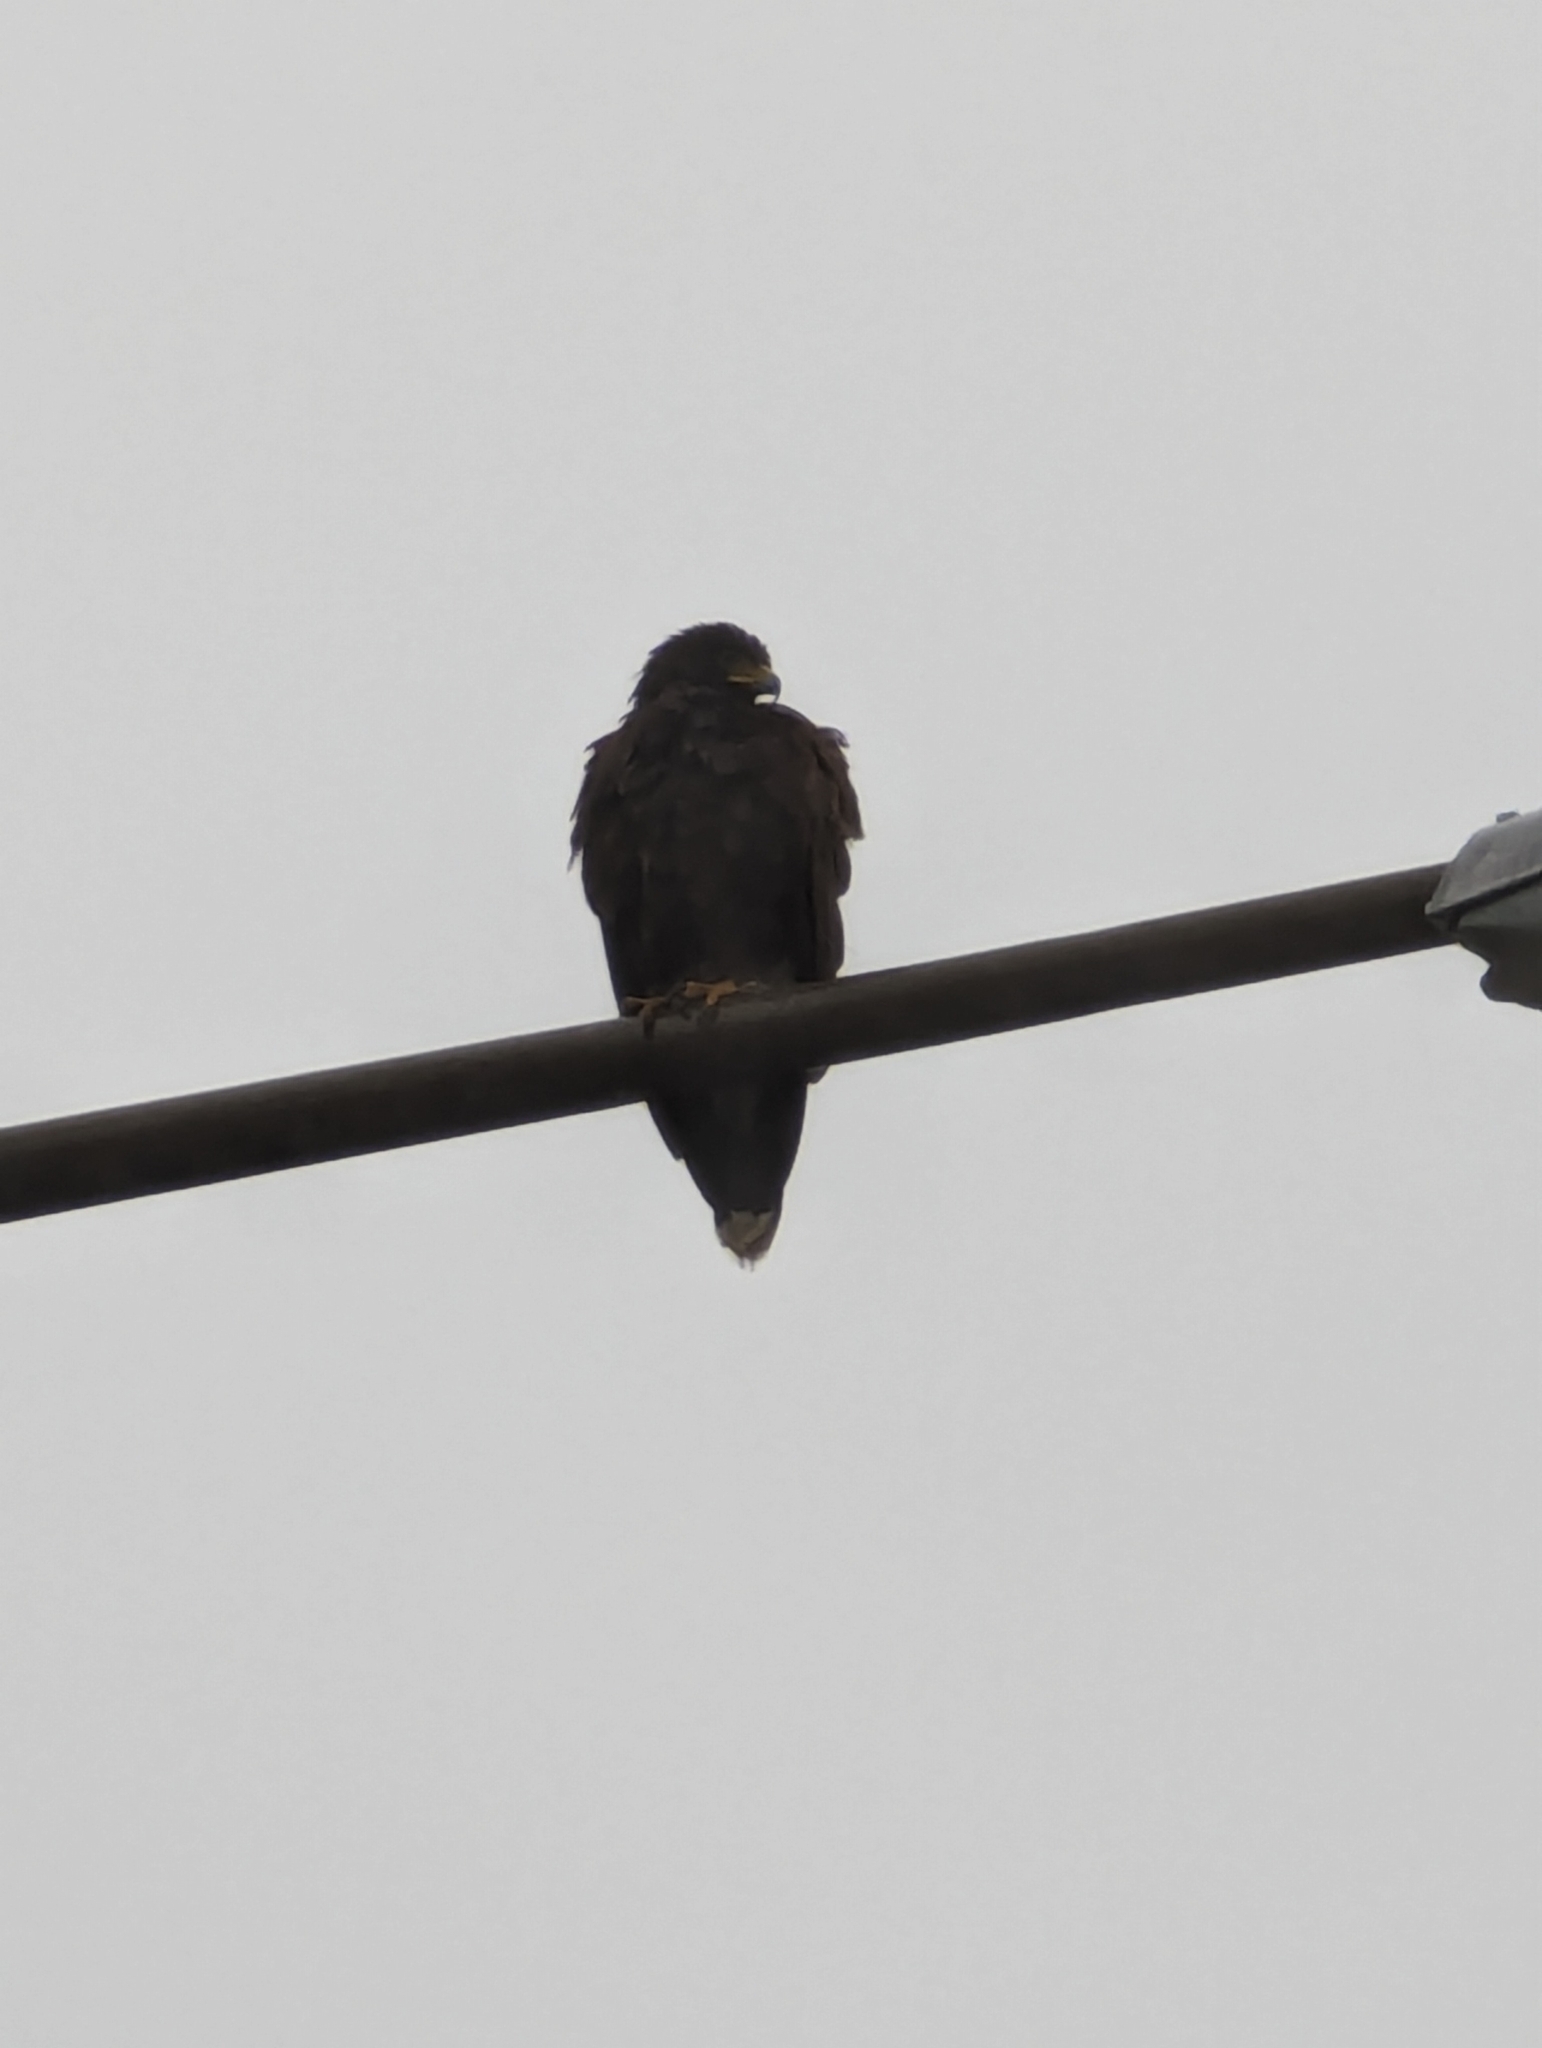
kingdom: Animalia
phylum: Chordata
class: Aves
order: Accipitriformes
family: Accipitridae
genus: Parabuteo
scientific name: Parabuteo unicinctus
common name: Harris's hawk
